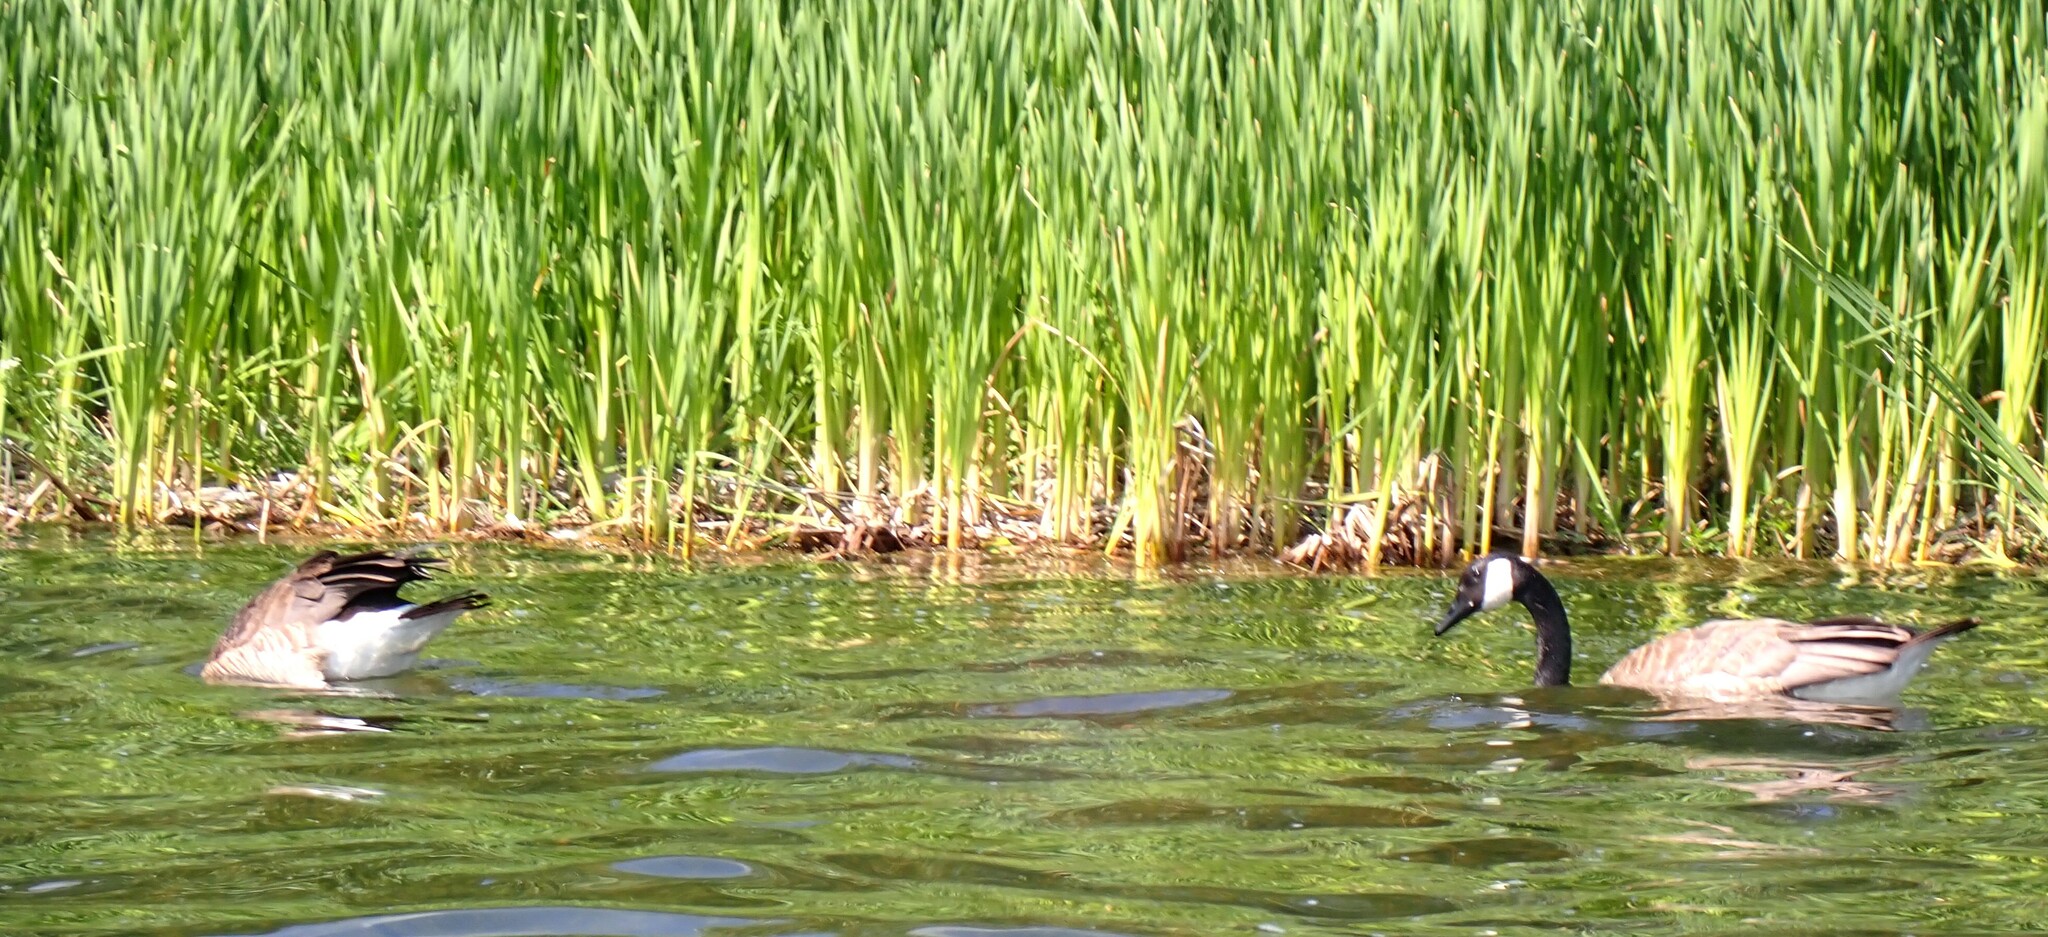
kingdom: Animalia
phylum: Chordata
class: Aves
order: Anseriformes
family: Anatidae
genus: Branta
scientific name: Branta canadensis
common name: Canada goose
